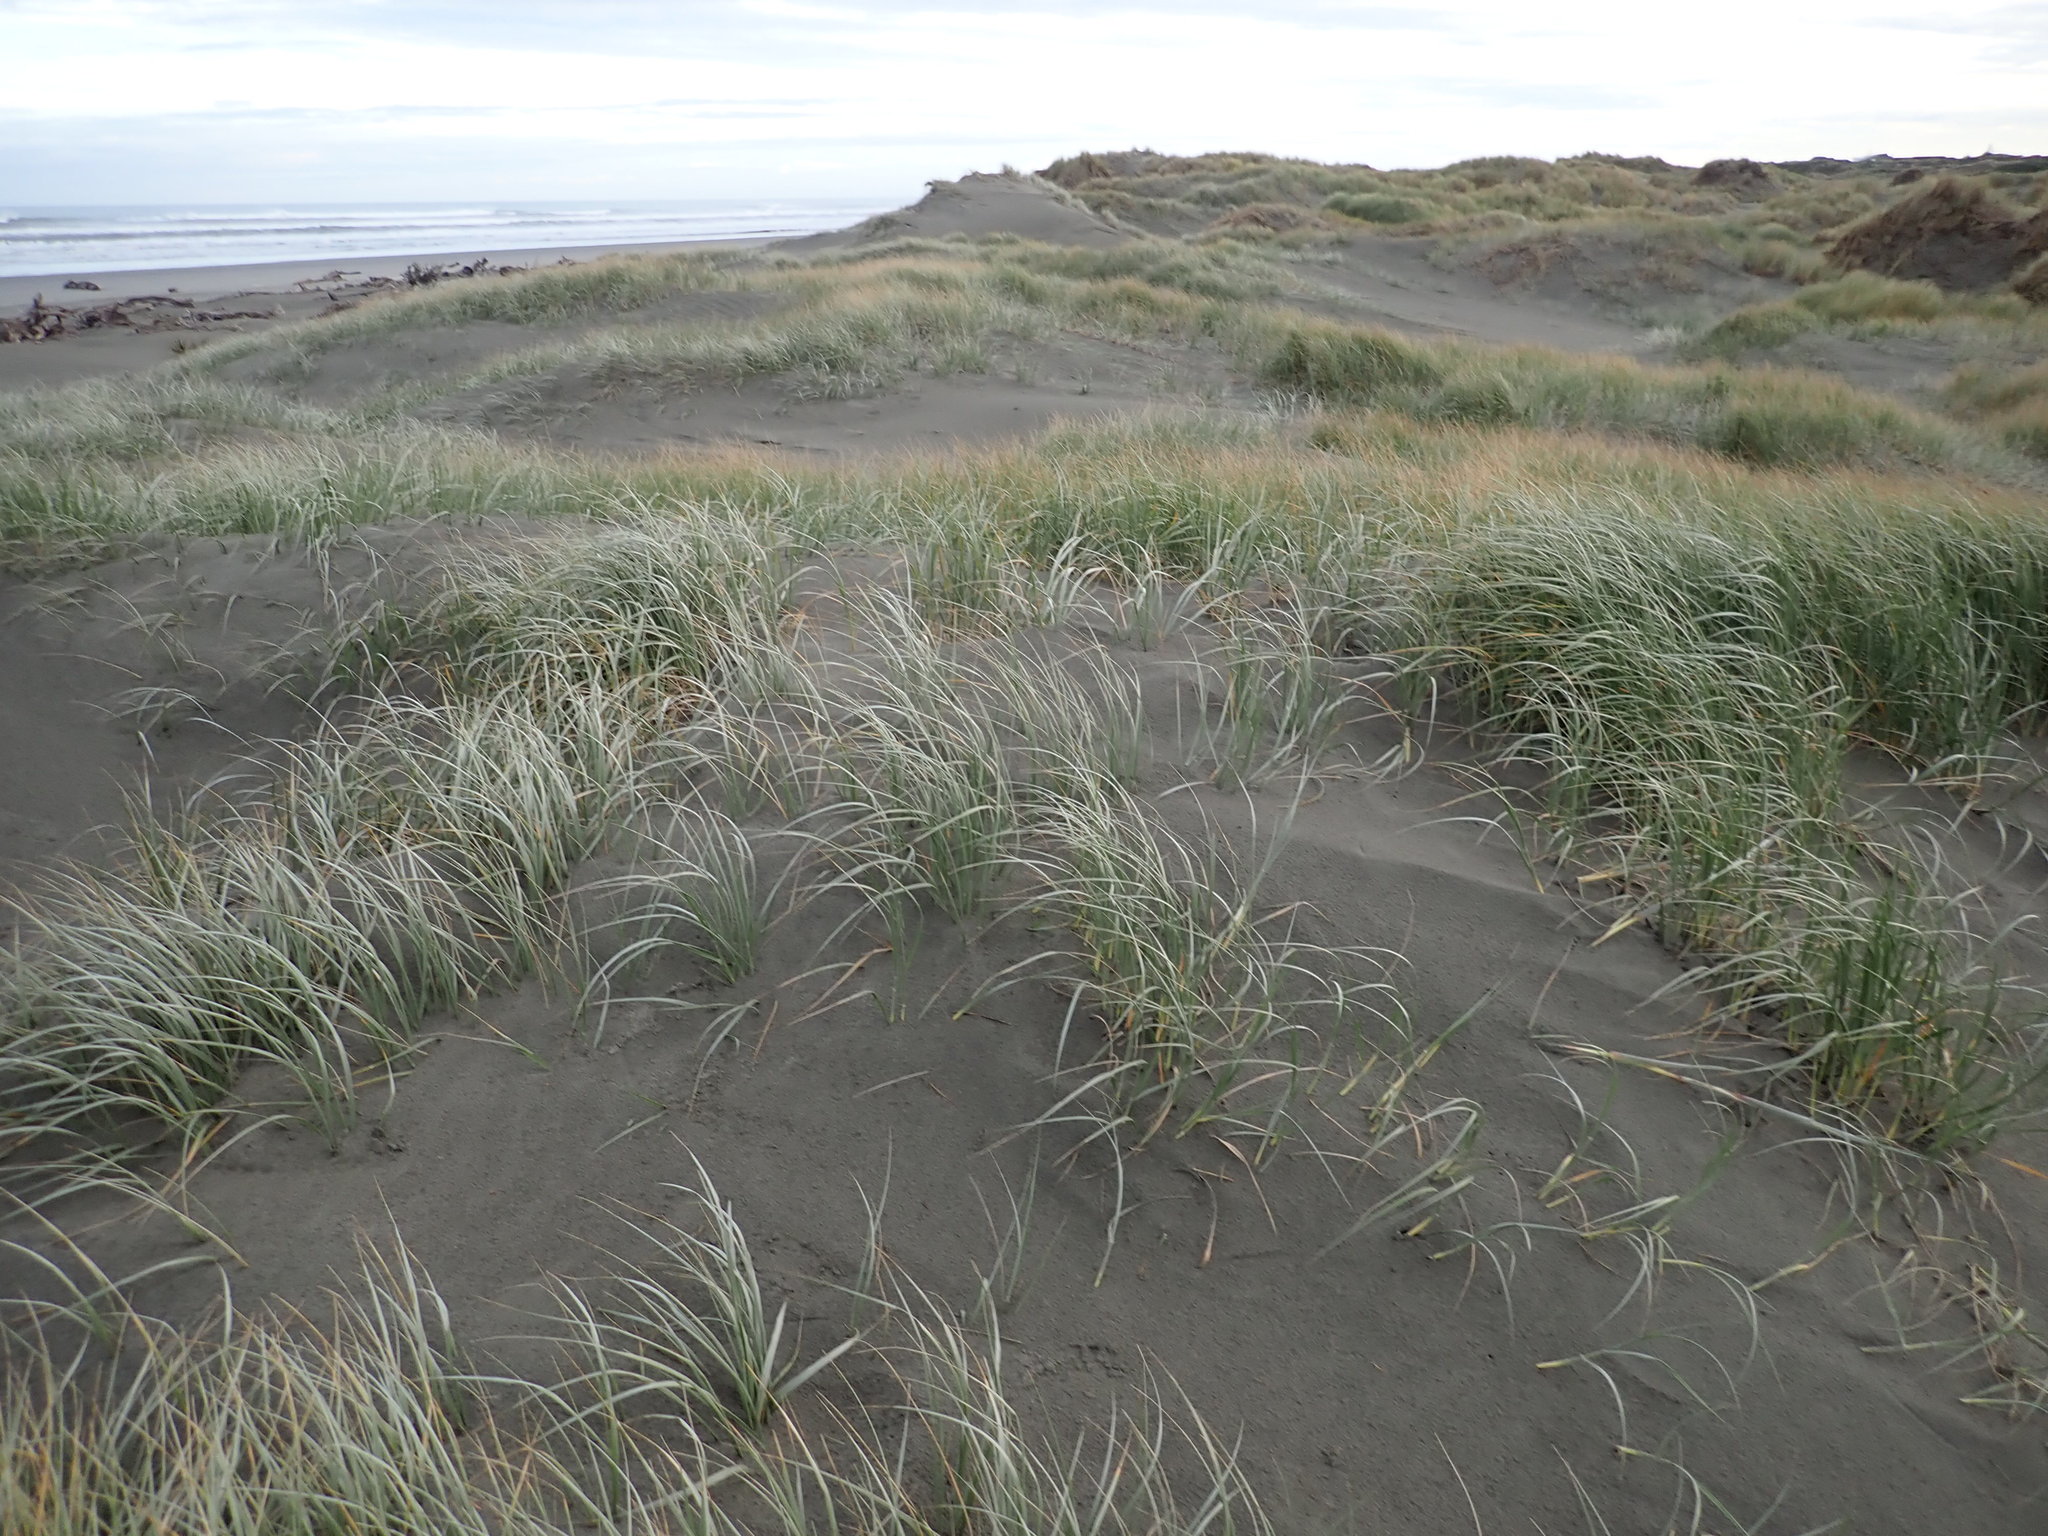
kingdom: Plantae
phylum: Tracheophyta
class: Liliopsida
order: Poales
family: Poaceae
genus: Spinifex
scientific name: Spinifex sericeus
